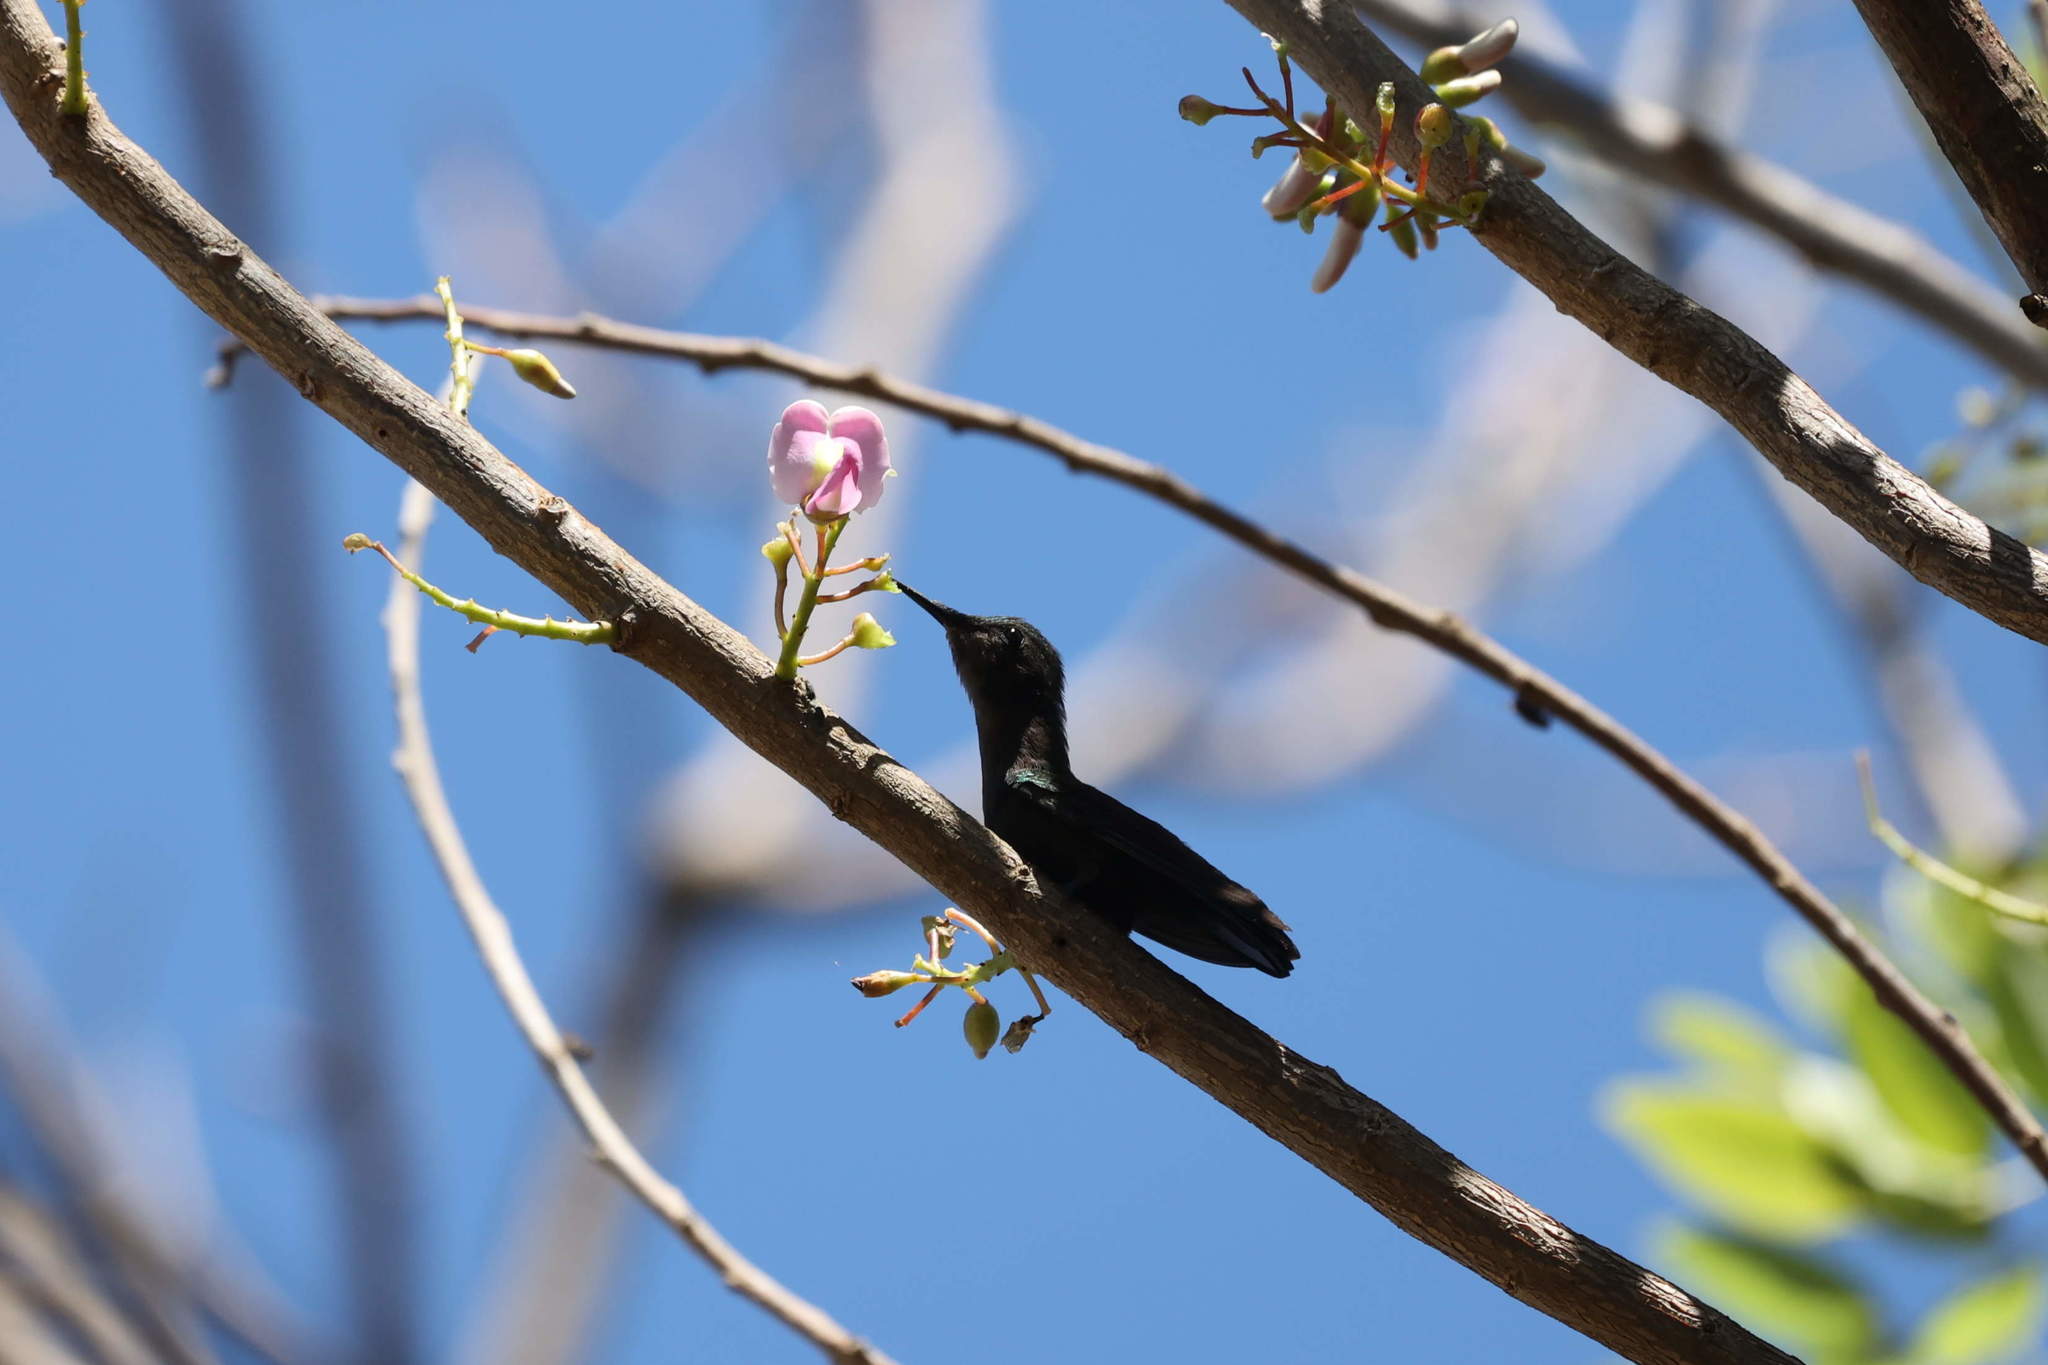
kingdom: Animalia
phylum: Chordata
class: Aves
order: Apodiformes
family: Trochilidae
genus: Orthorhyncus
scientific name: Orthorhyncus cristatus
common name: Antillean crested hummingbird
